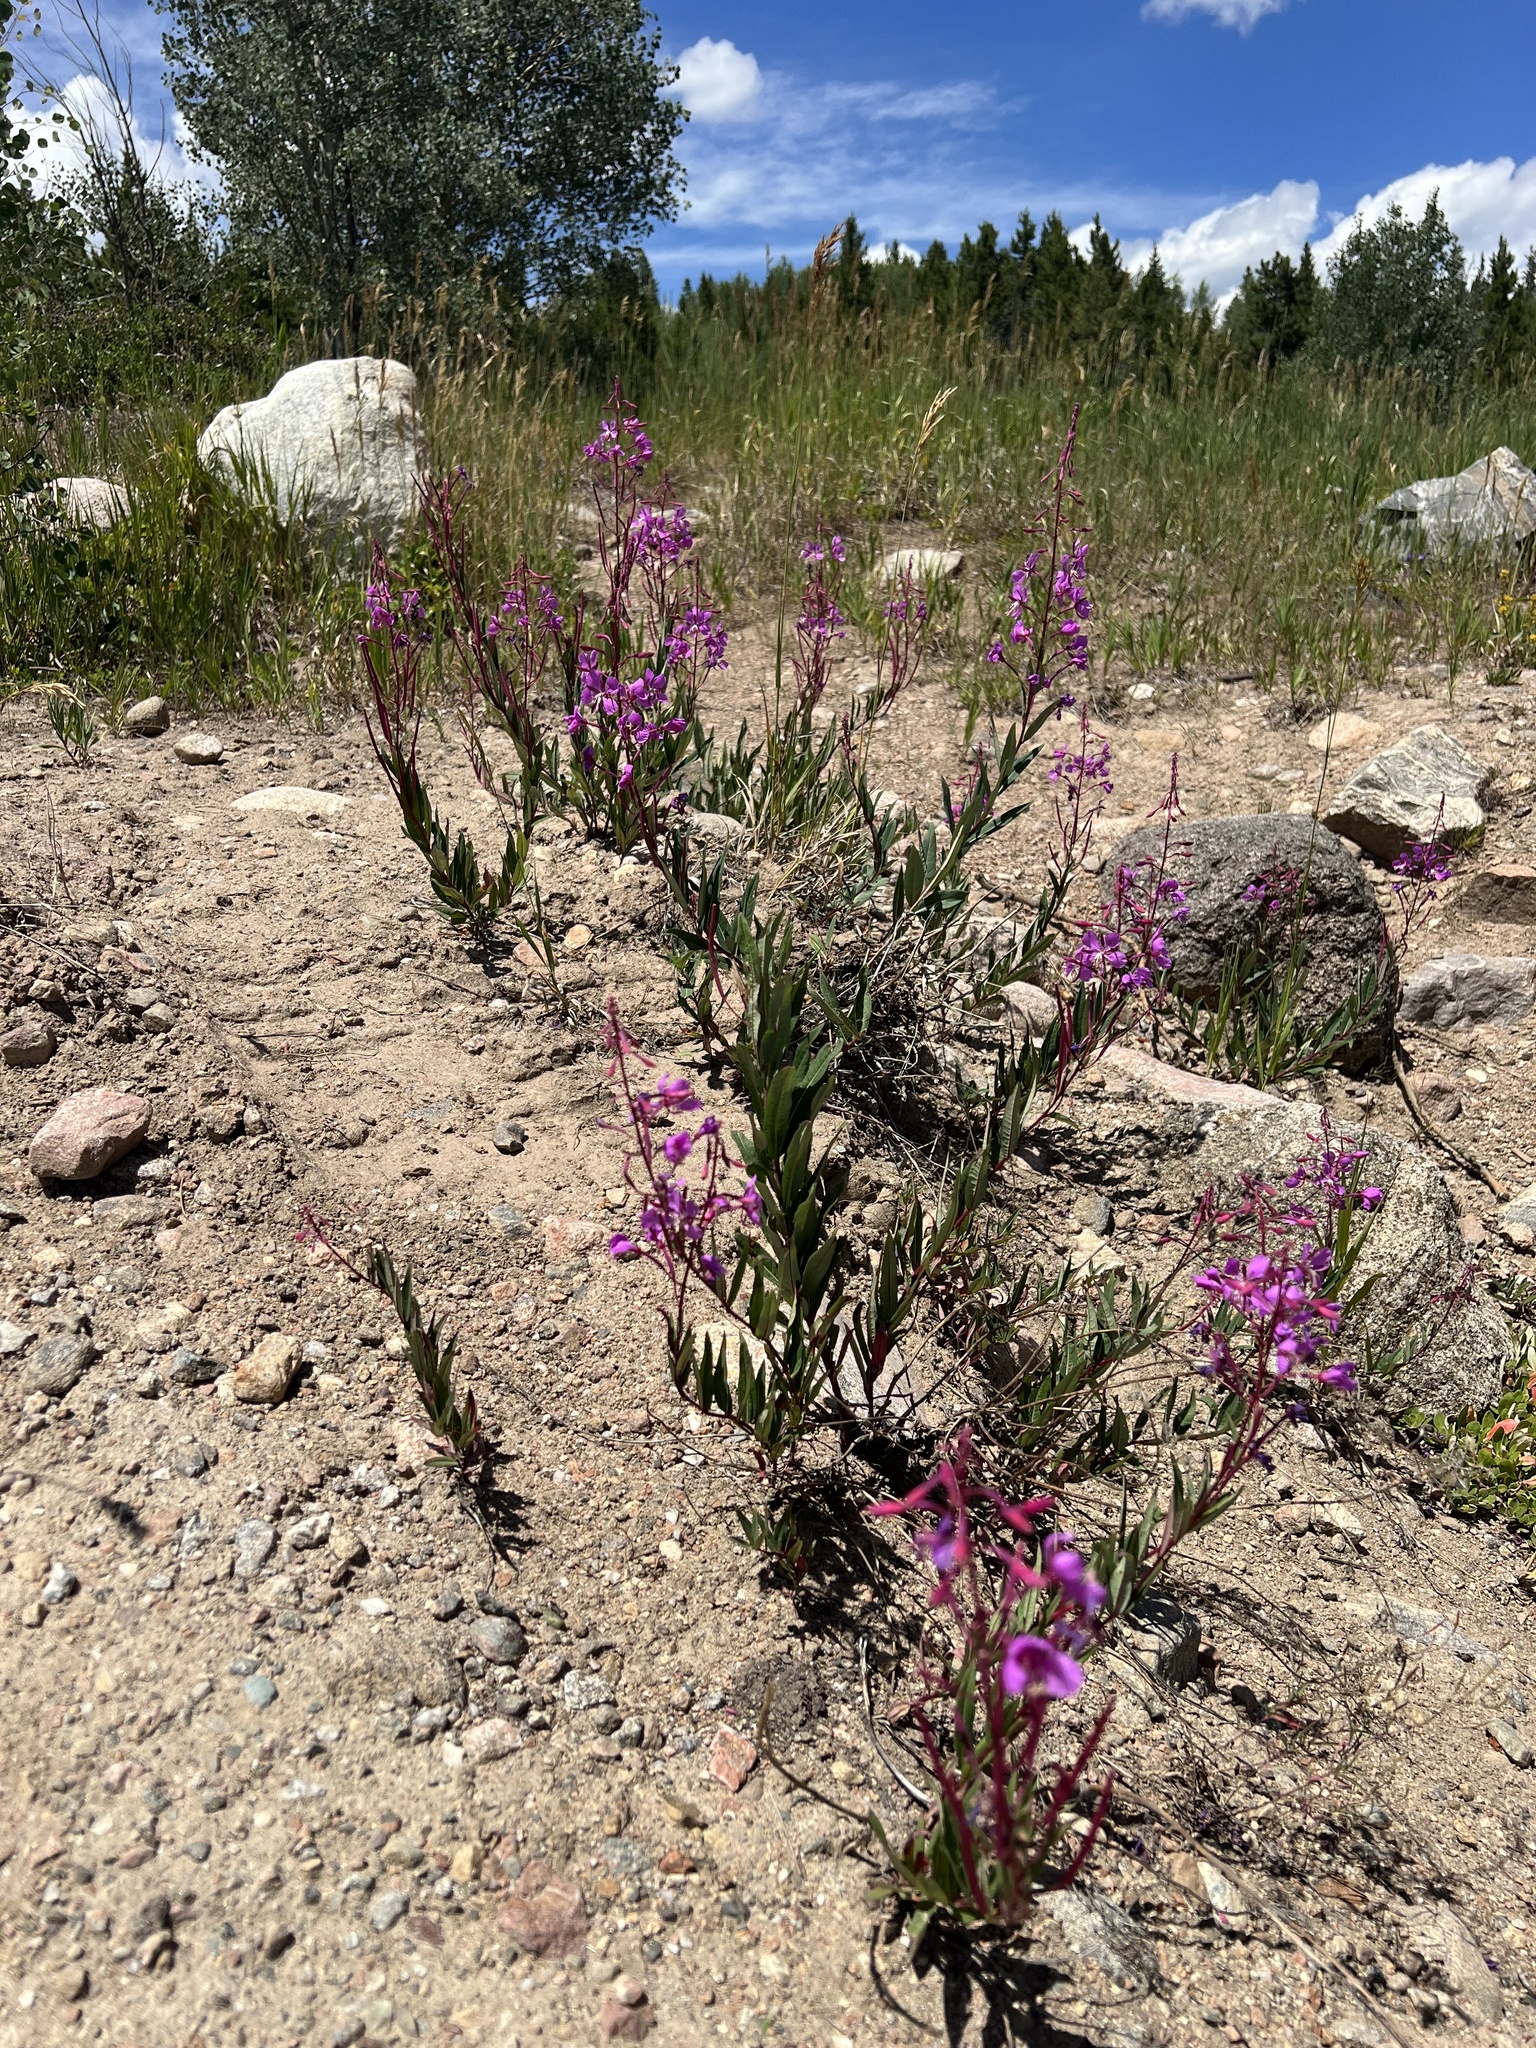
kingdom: Plantae
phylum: Tracheophyta
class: Magnoliopsida
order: Myrtales
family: Onagraceae
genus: Chamaenerion
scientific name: Chamaenerion angustifolium
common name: Fireweed
